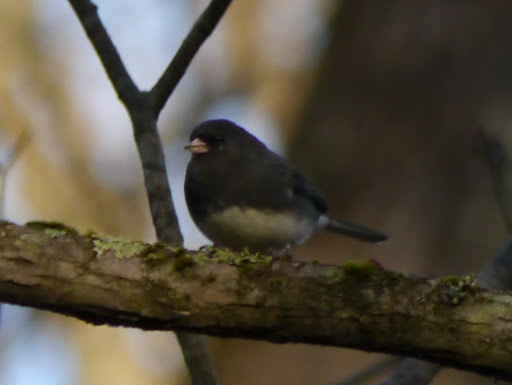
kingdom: Animalia
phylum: Chordata
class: Aves
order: Passeriformes
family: Passerellidae
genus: Junco
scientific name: Junco hyemalis
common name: Dark-eyed junco
